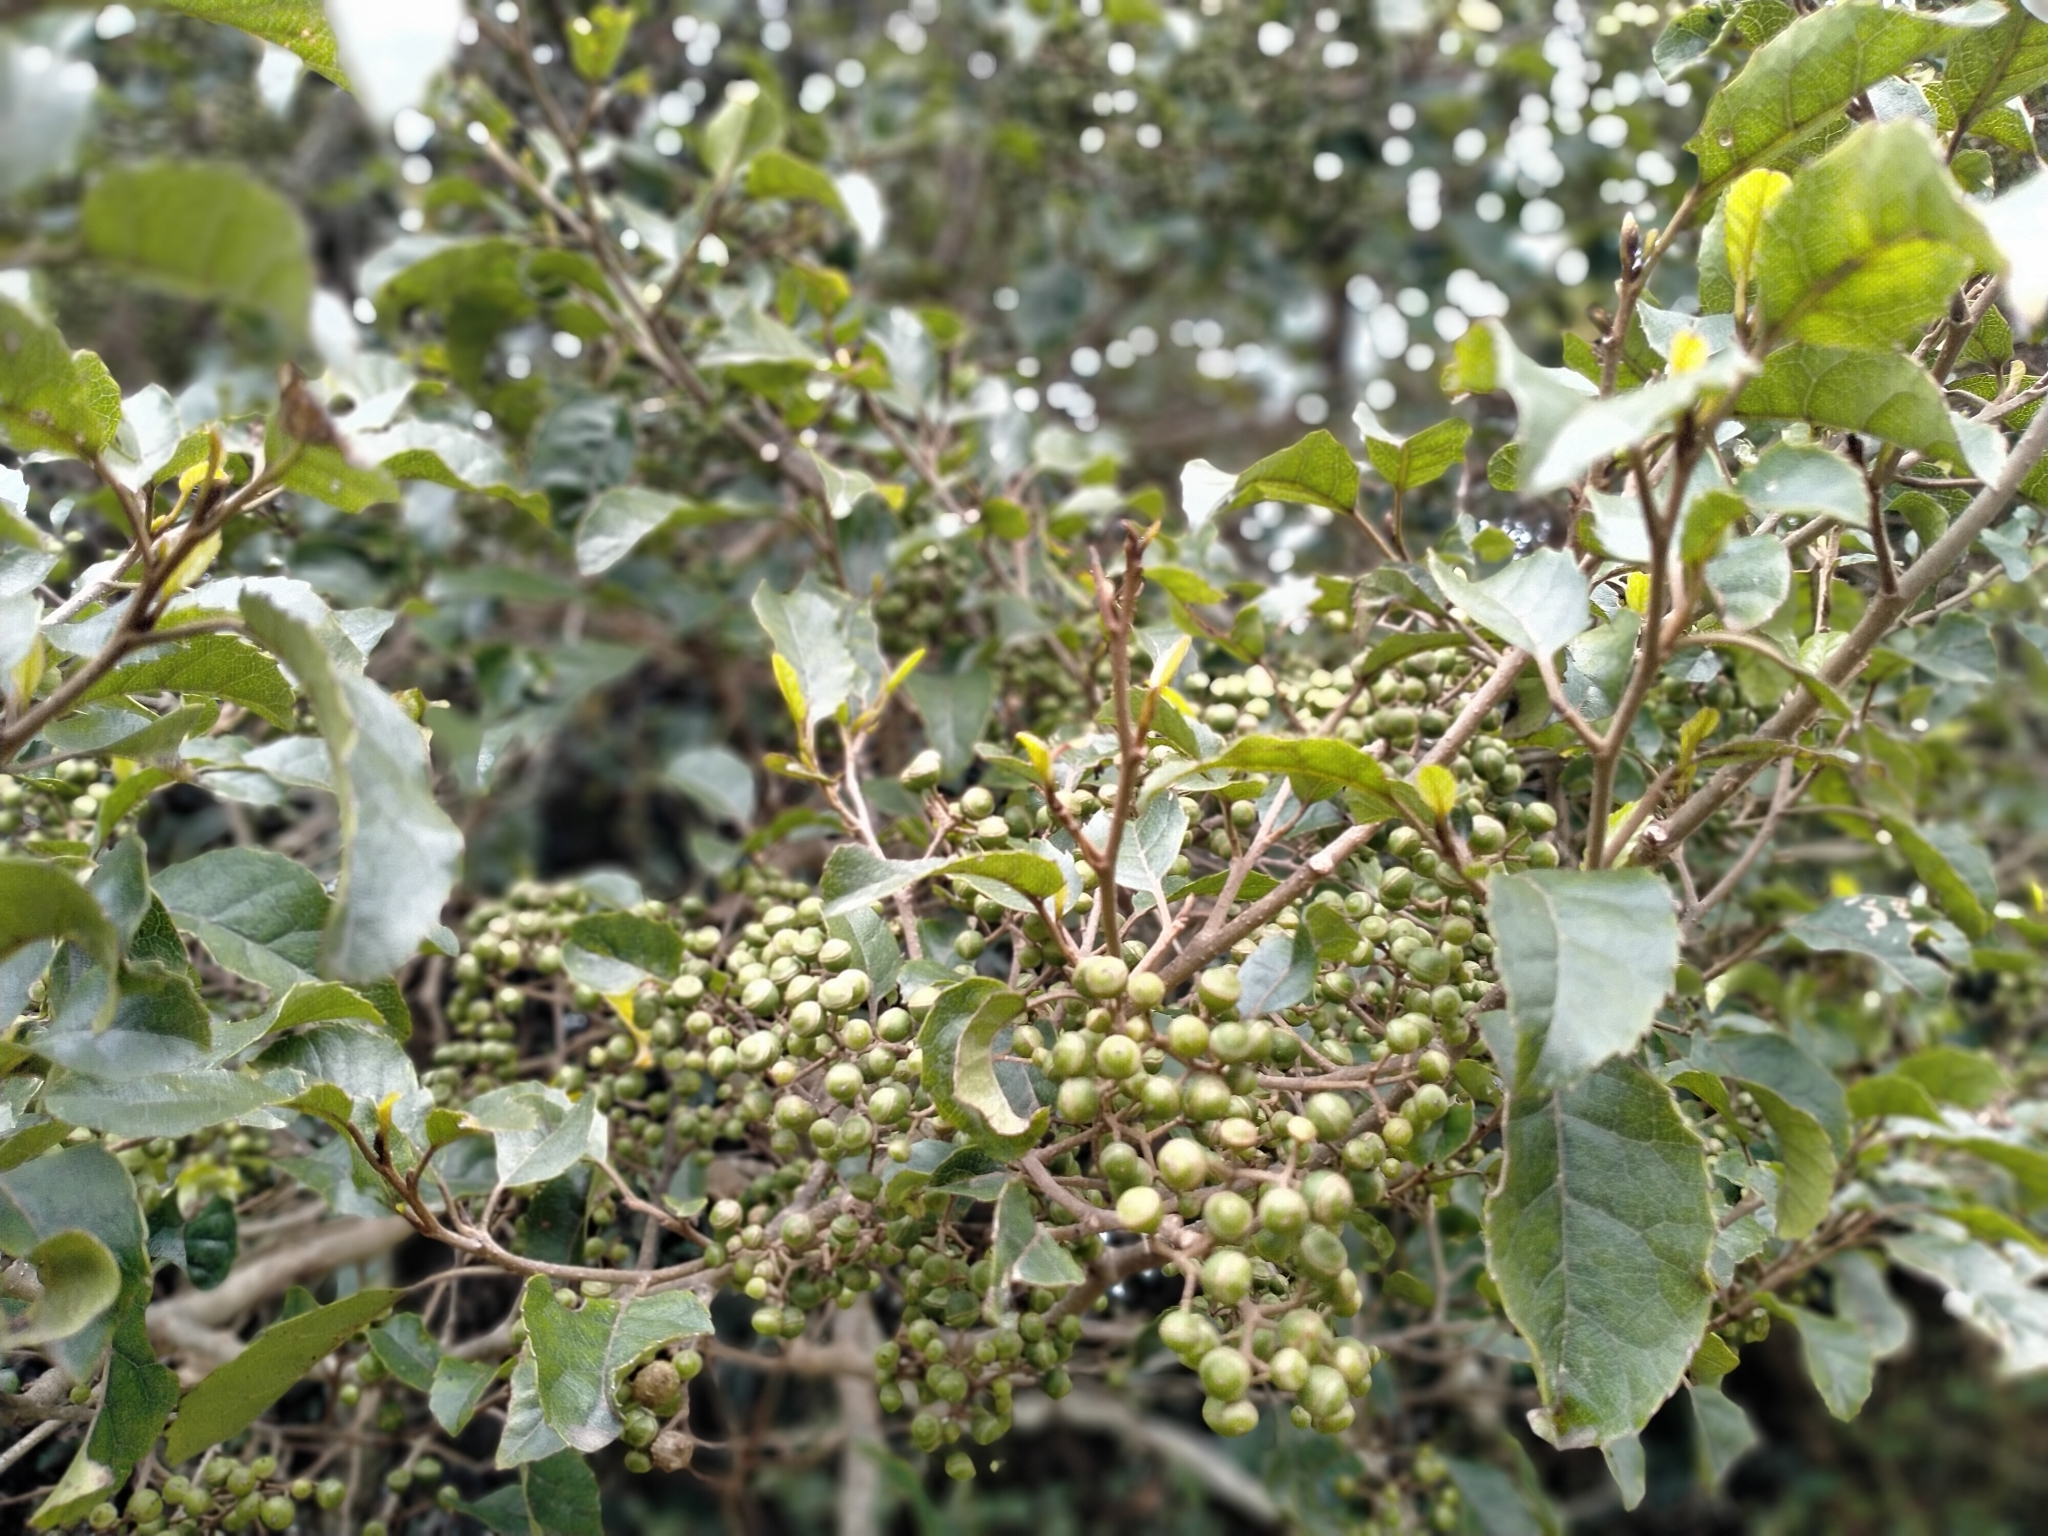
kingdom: Plantae
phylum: Tracheophyta
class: Magnoliopsida
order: Asterales
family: Rousseaceae
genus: Carpodetus
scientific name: Carpodetus serratus
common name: White mapau
